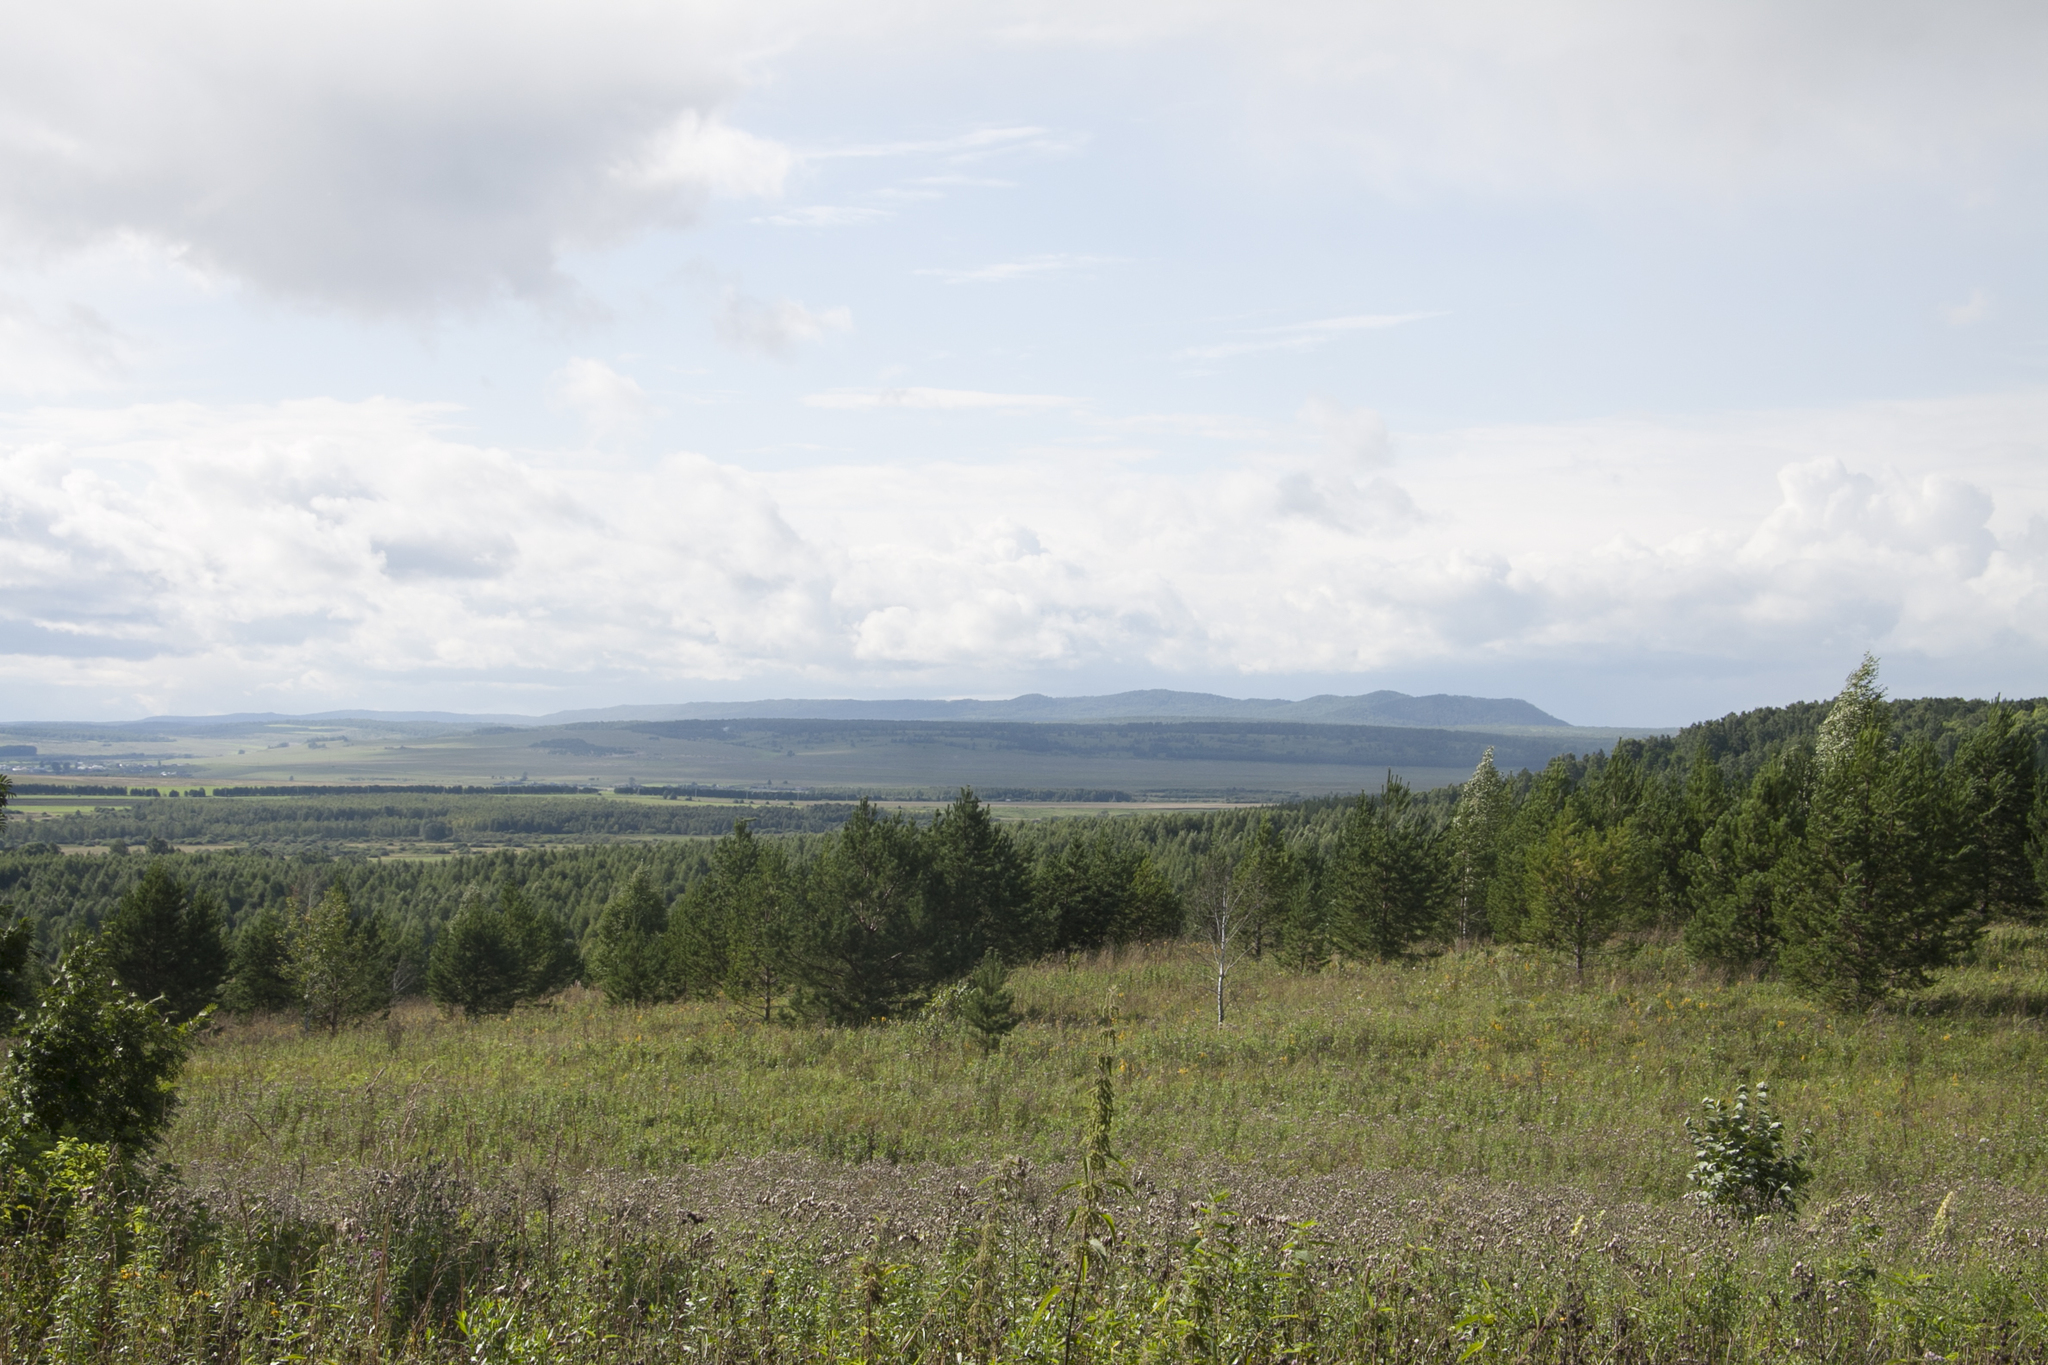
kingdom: Plantae
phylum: Tracheophyta
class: Pinopsida
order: Pinales
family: Pinaceae
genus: Pinus
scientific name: Pinus sylvestris
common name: Scots pine
